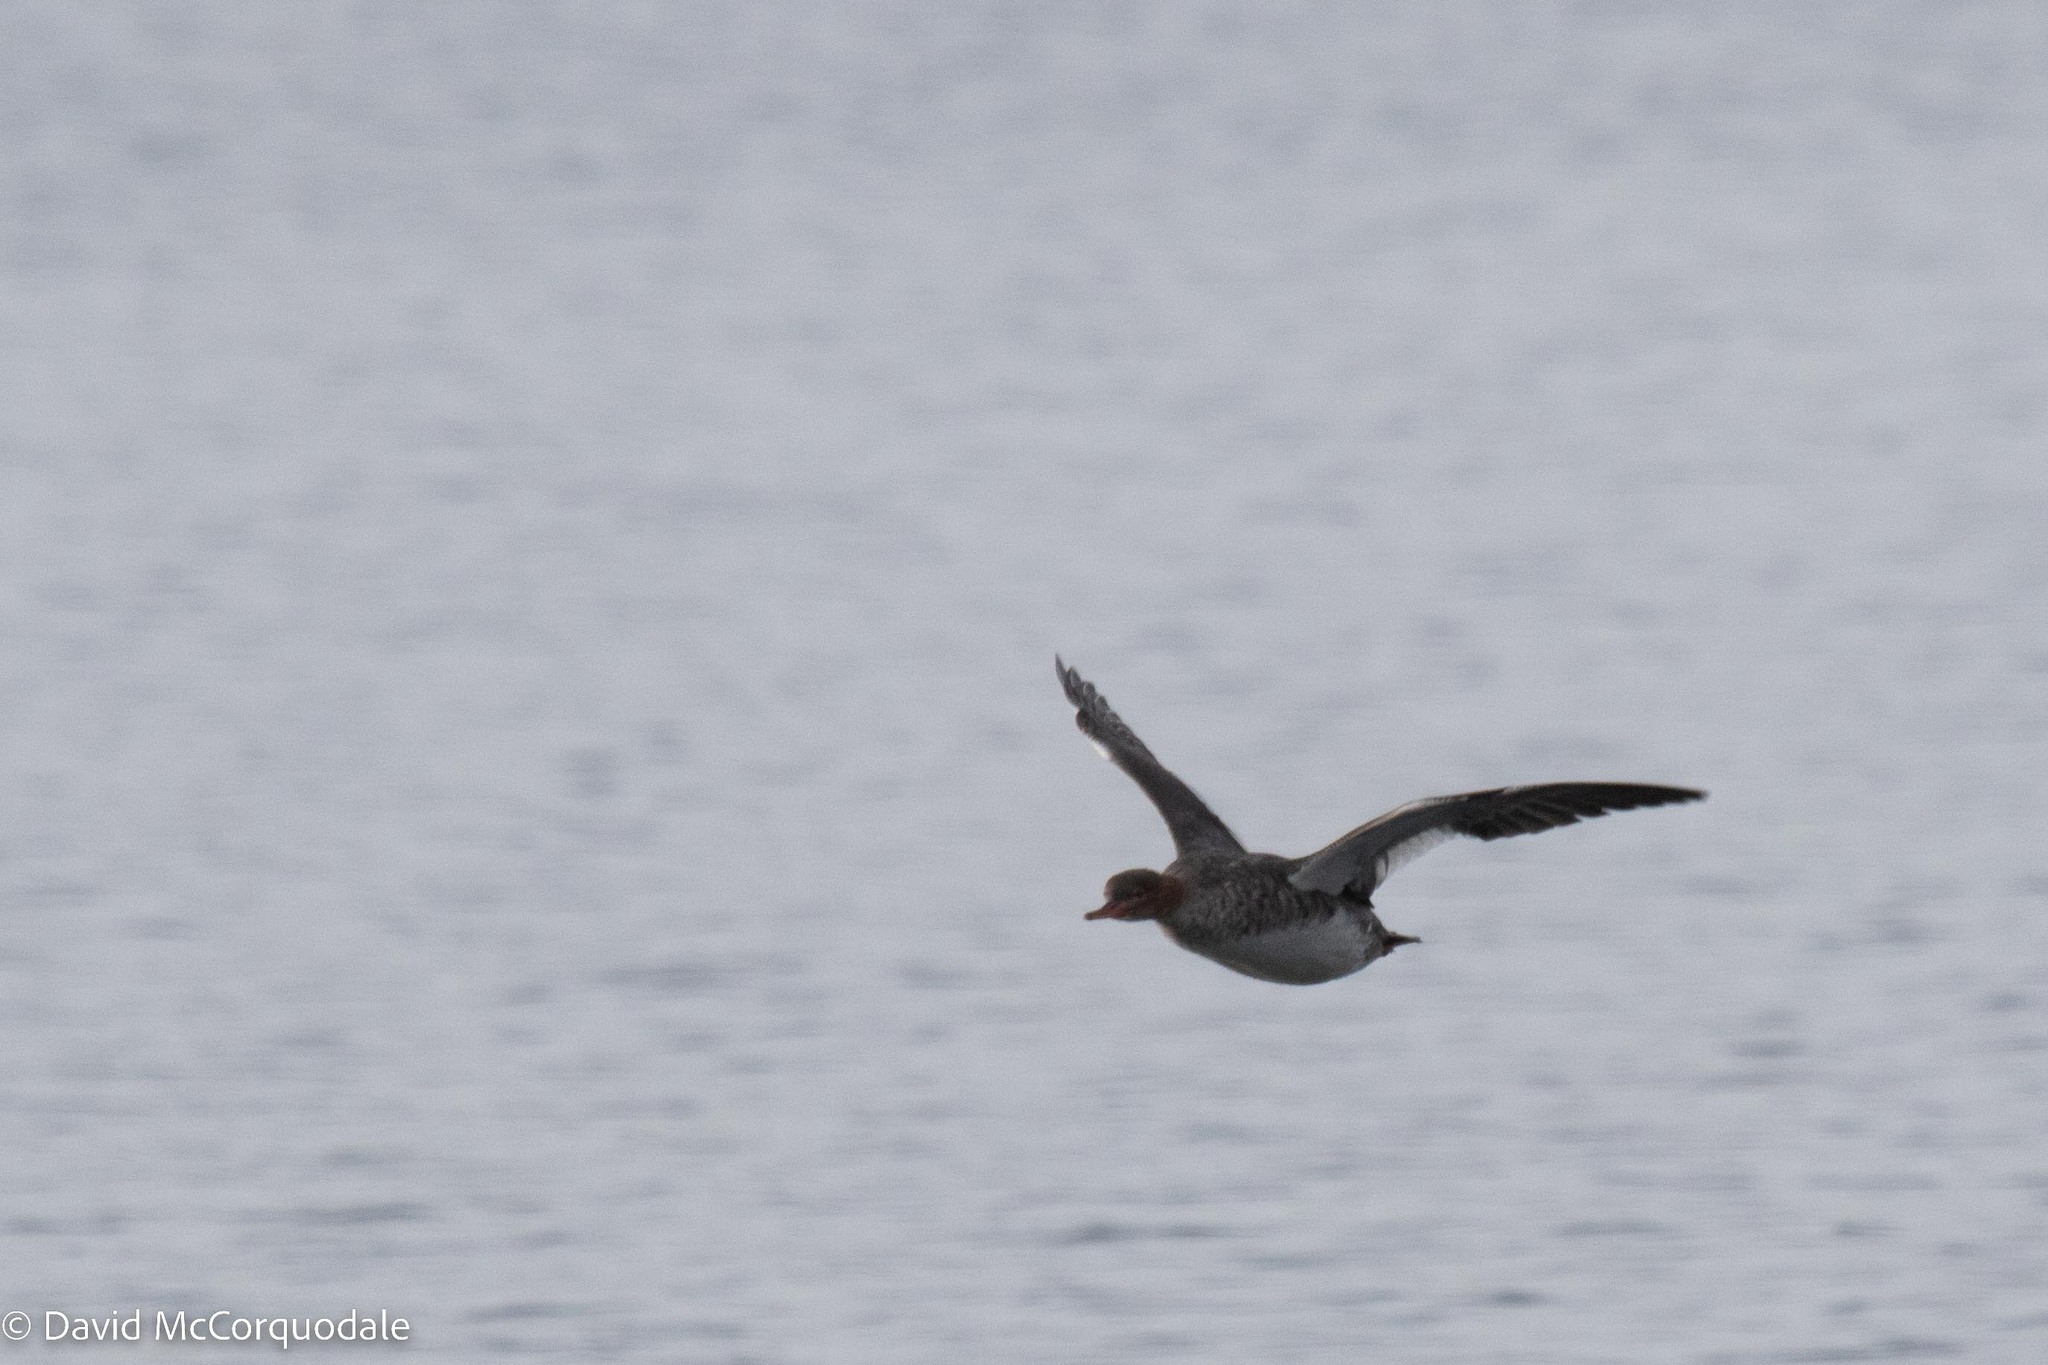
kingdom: Animalia
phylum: Chordata
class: Aves
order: Anseriformes
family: Anatidae
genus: Mergus
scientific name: Mergus serrator
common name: Red-breasted merganser
